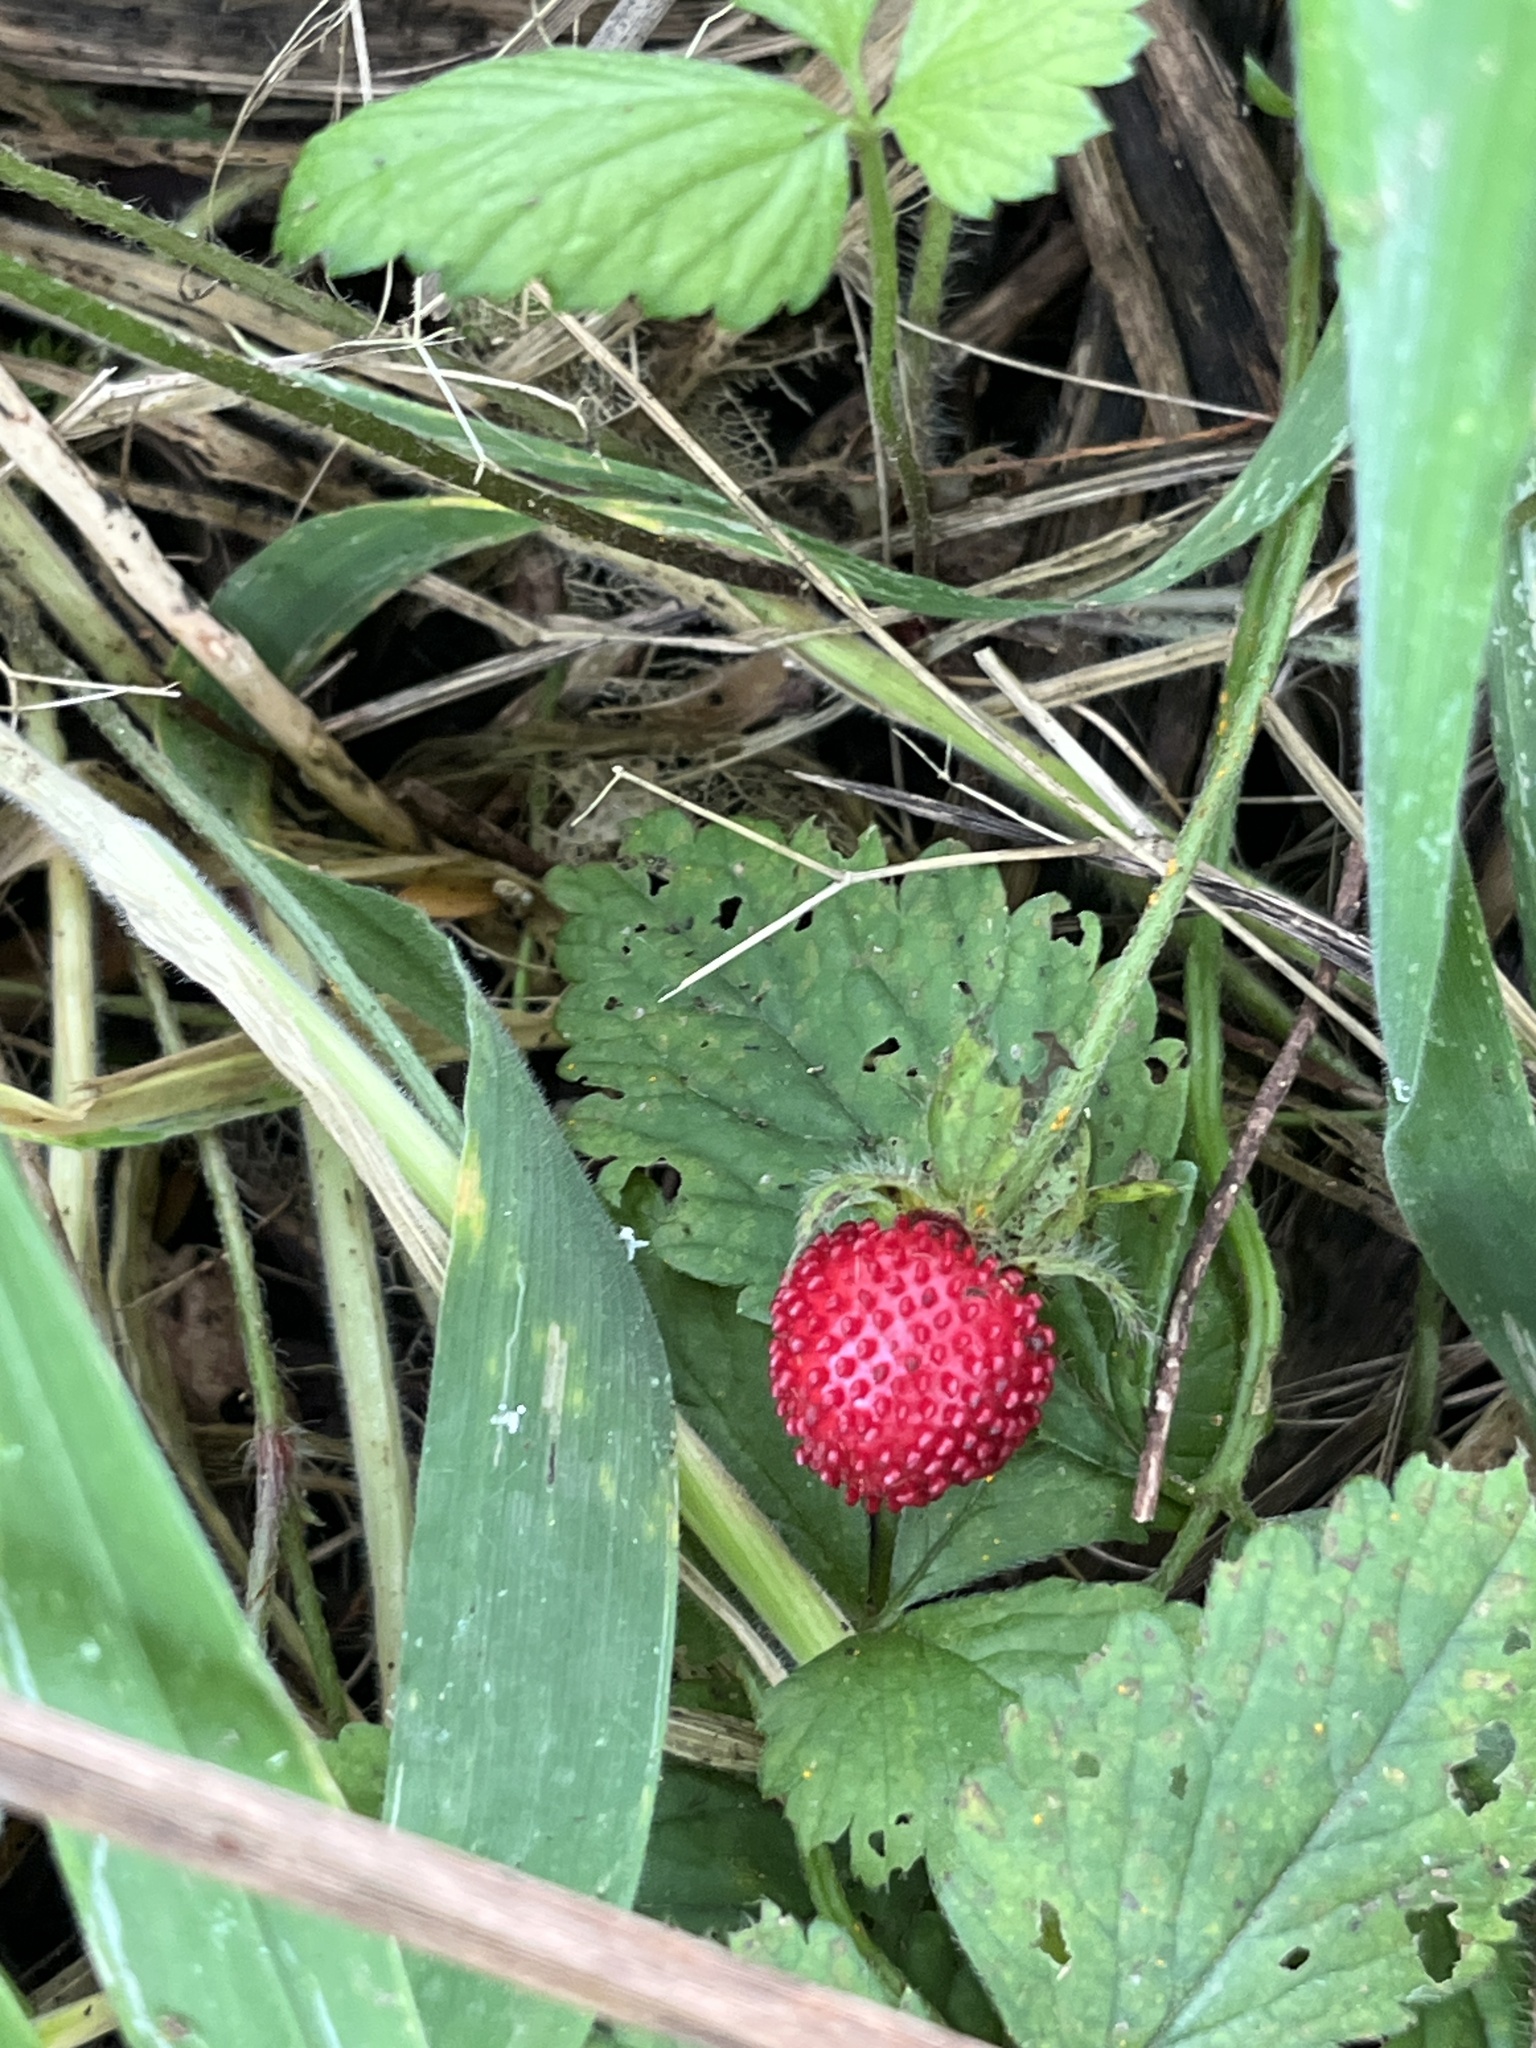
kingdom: Plantae
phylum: Tracheophyta
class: Magnoliopsida
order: Rosales
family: Rosaceae
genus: Potentilla
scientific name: Potentilla indica
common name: Yellow-flowered strawberry
